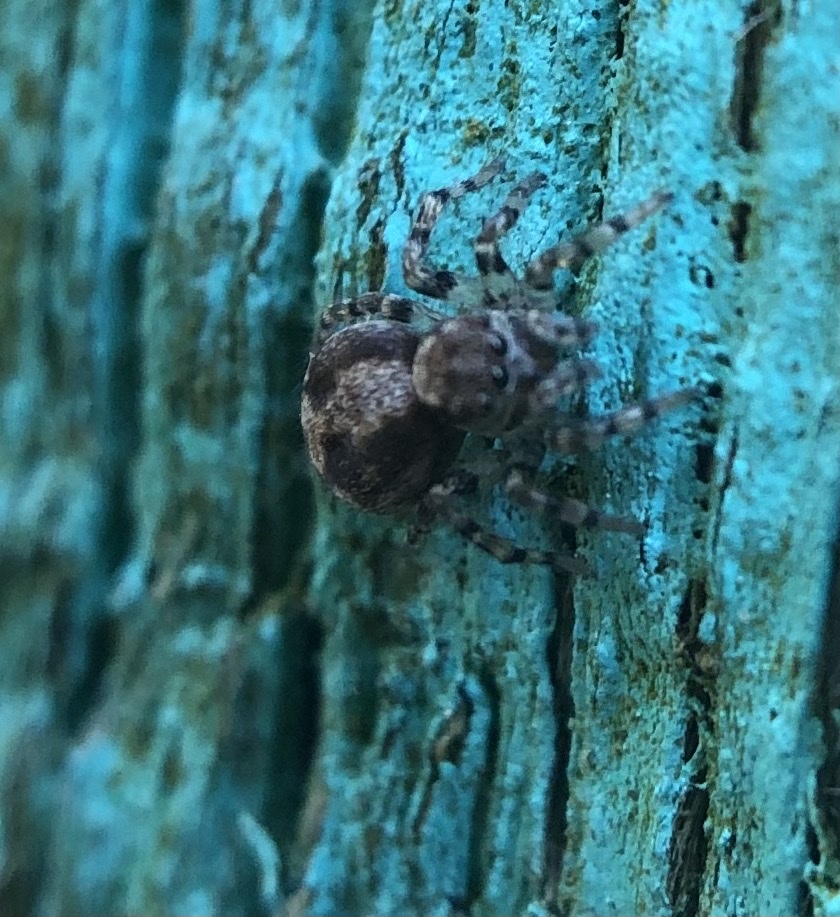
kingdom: Animalia
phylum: Arthropoda
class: Arachnida
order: Araneae
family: Salticidae
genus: Naphrys
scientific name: Naphrys pulex
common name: Flea jumping spider
